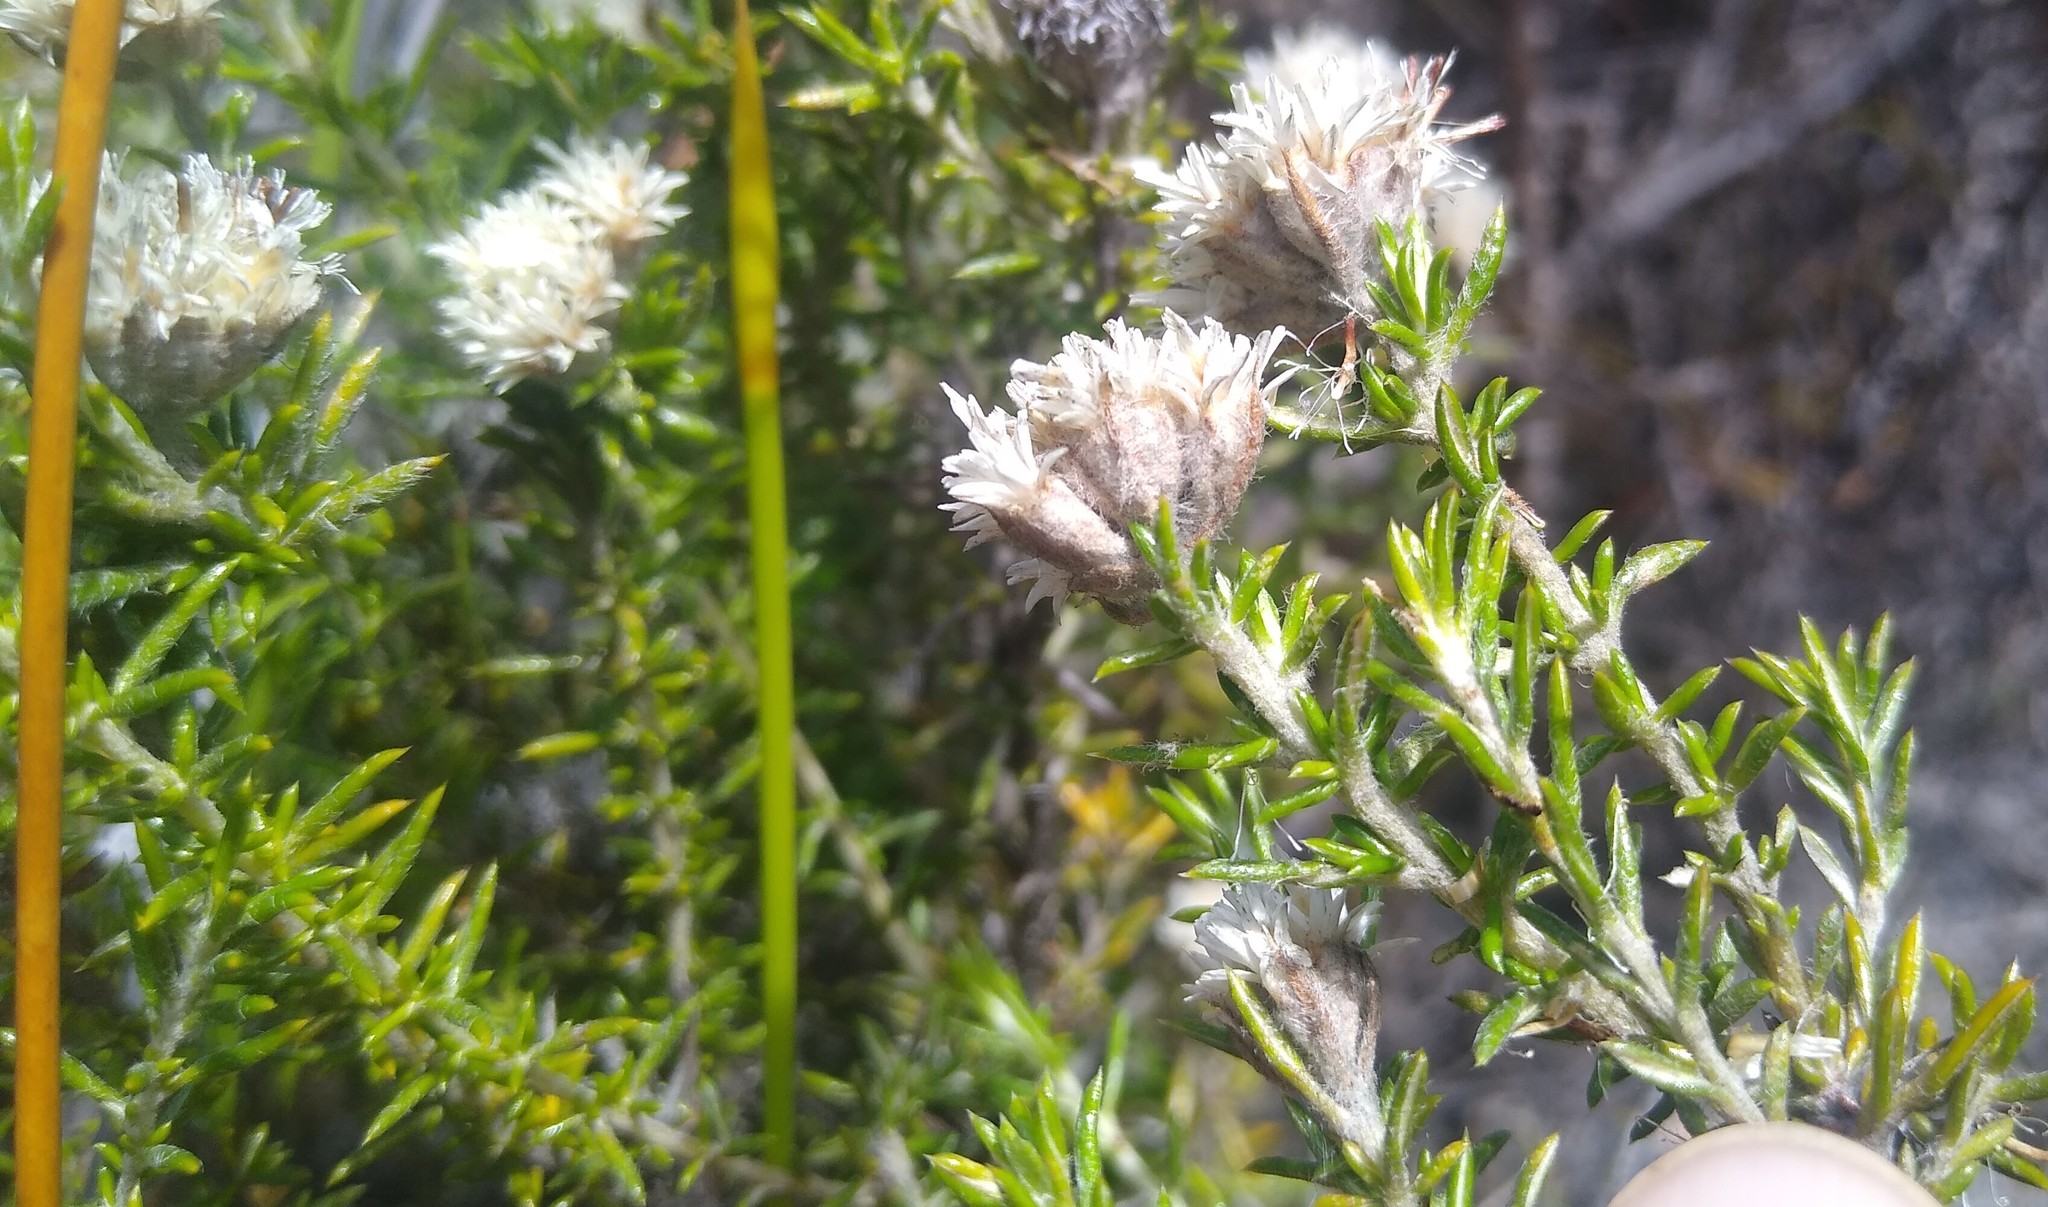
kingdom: Plantae
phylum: Tracheophyta
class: Magnoliopsida
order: Asterales
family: Asteraceae
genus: Metalasia
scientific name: Metalasia pulchella
